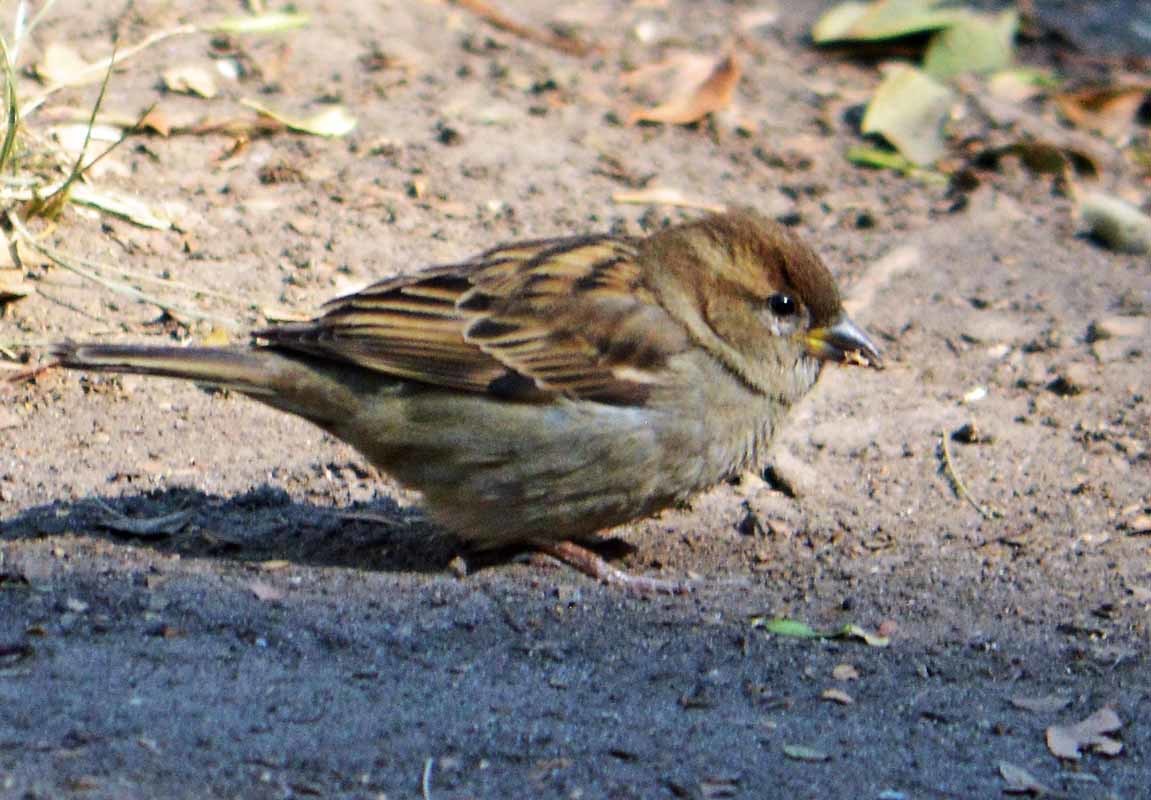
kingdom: Animalia
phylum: Chordata
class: Aves
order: Passeriformes
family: Passeridae
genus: Passer
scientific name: Passer domesticus
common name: House sparrow
